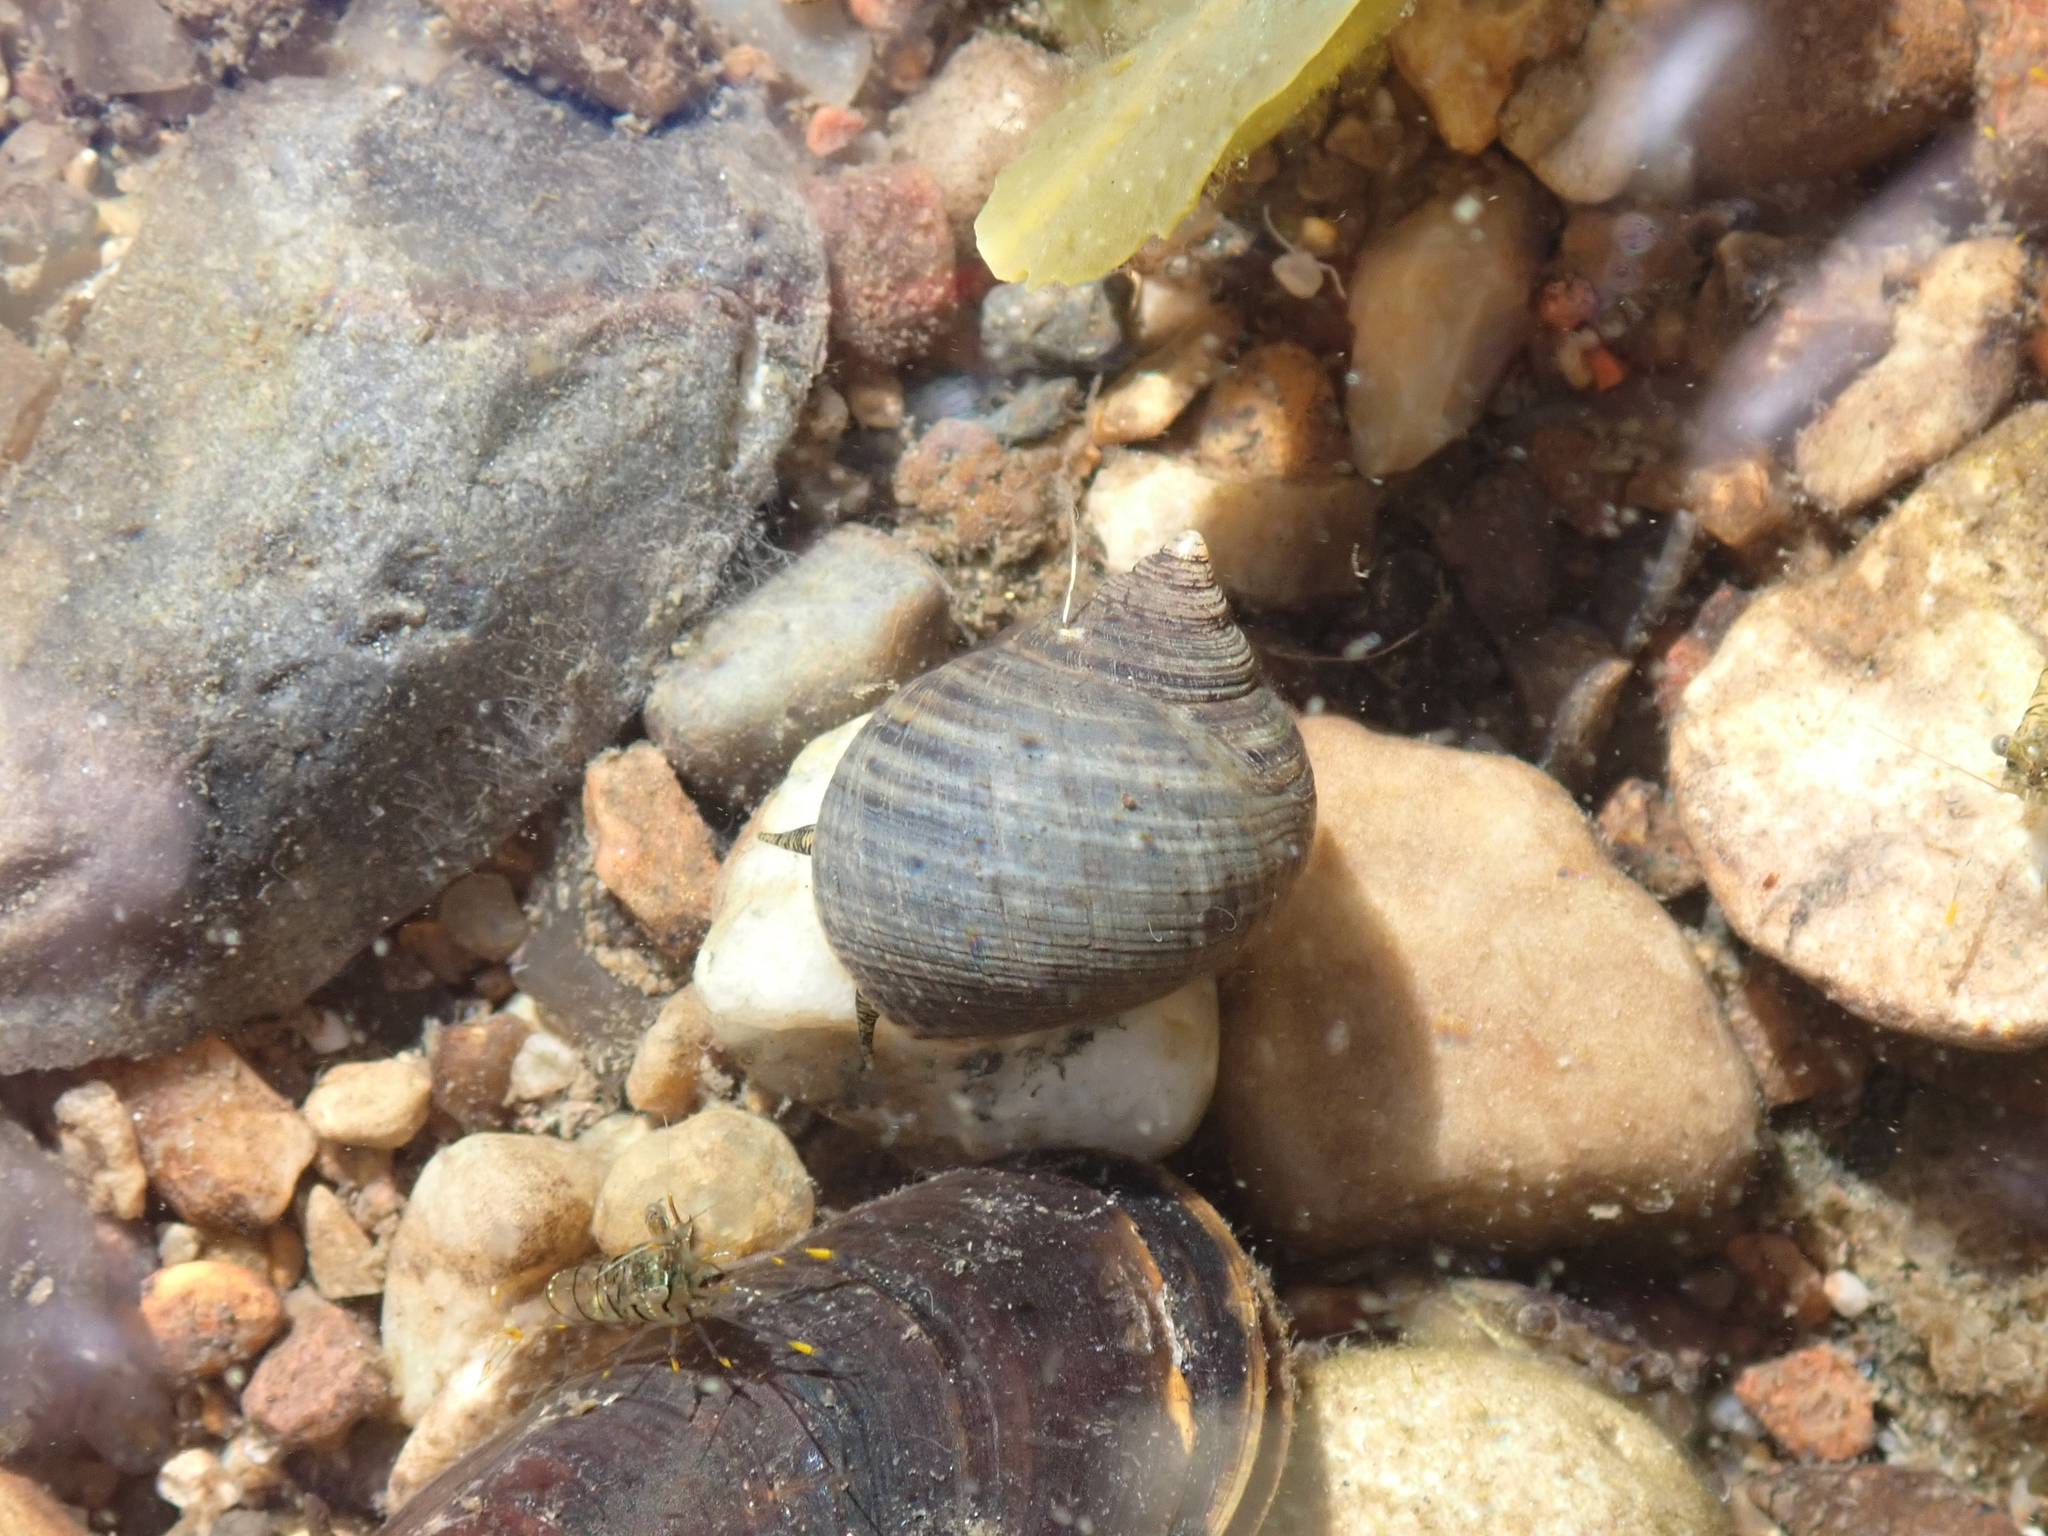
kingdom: Animalia
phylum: Mollusca
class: Gastropoda
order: Littorinimorpha
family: Littorinidae
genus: Littorina
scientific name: Littorina littorea
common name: Common periwinkle
